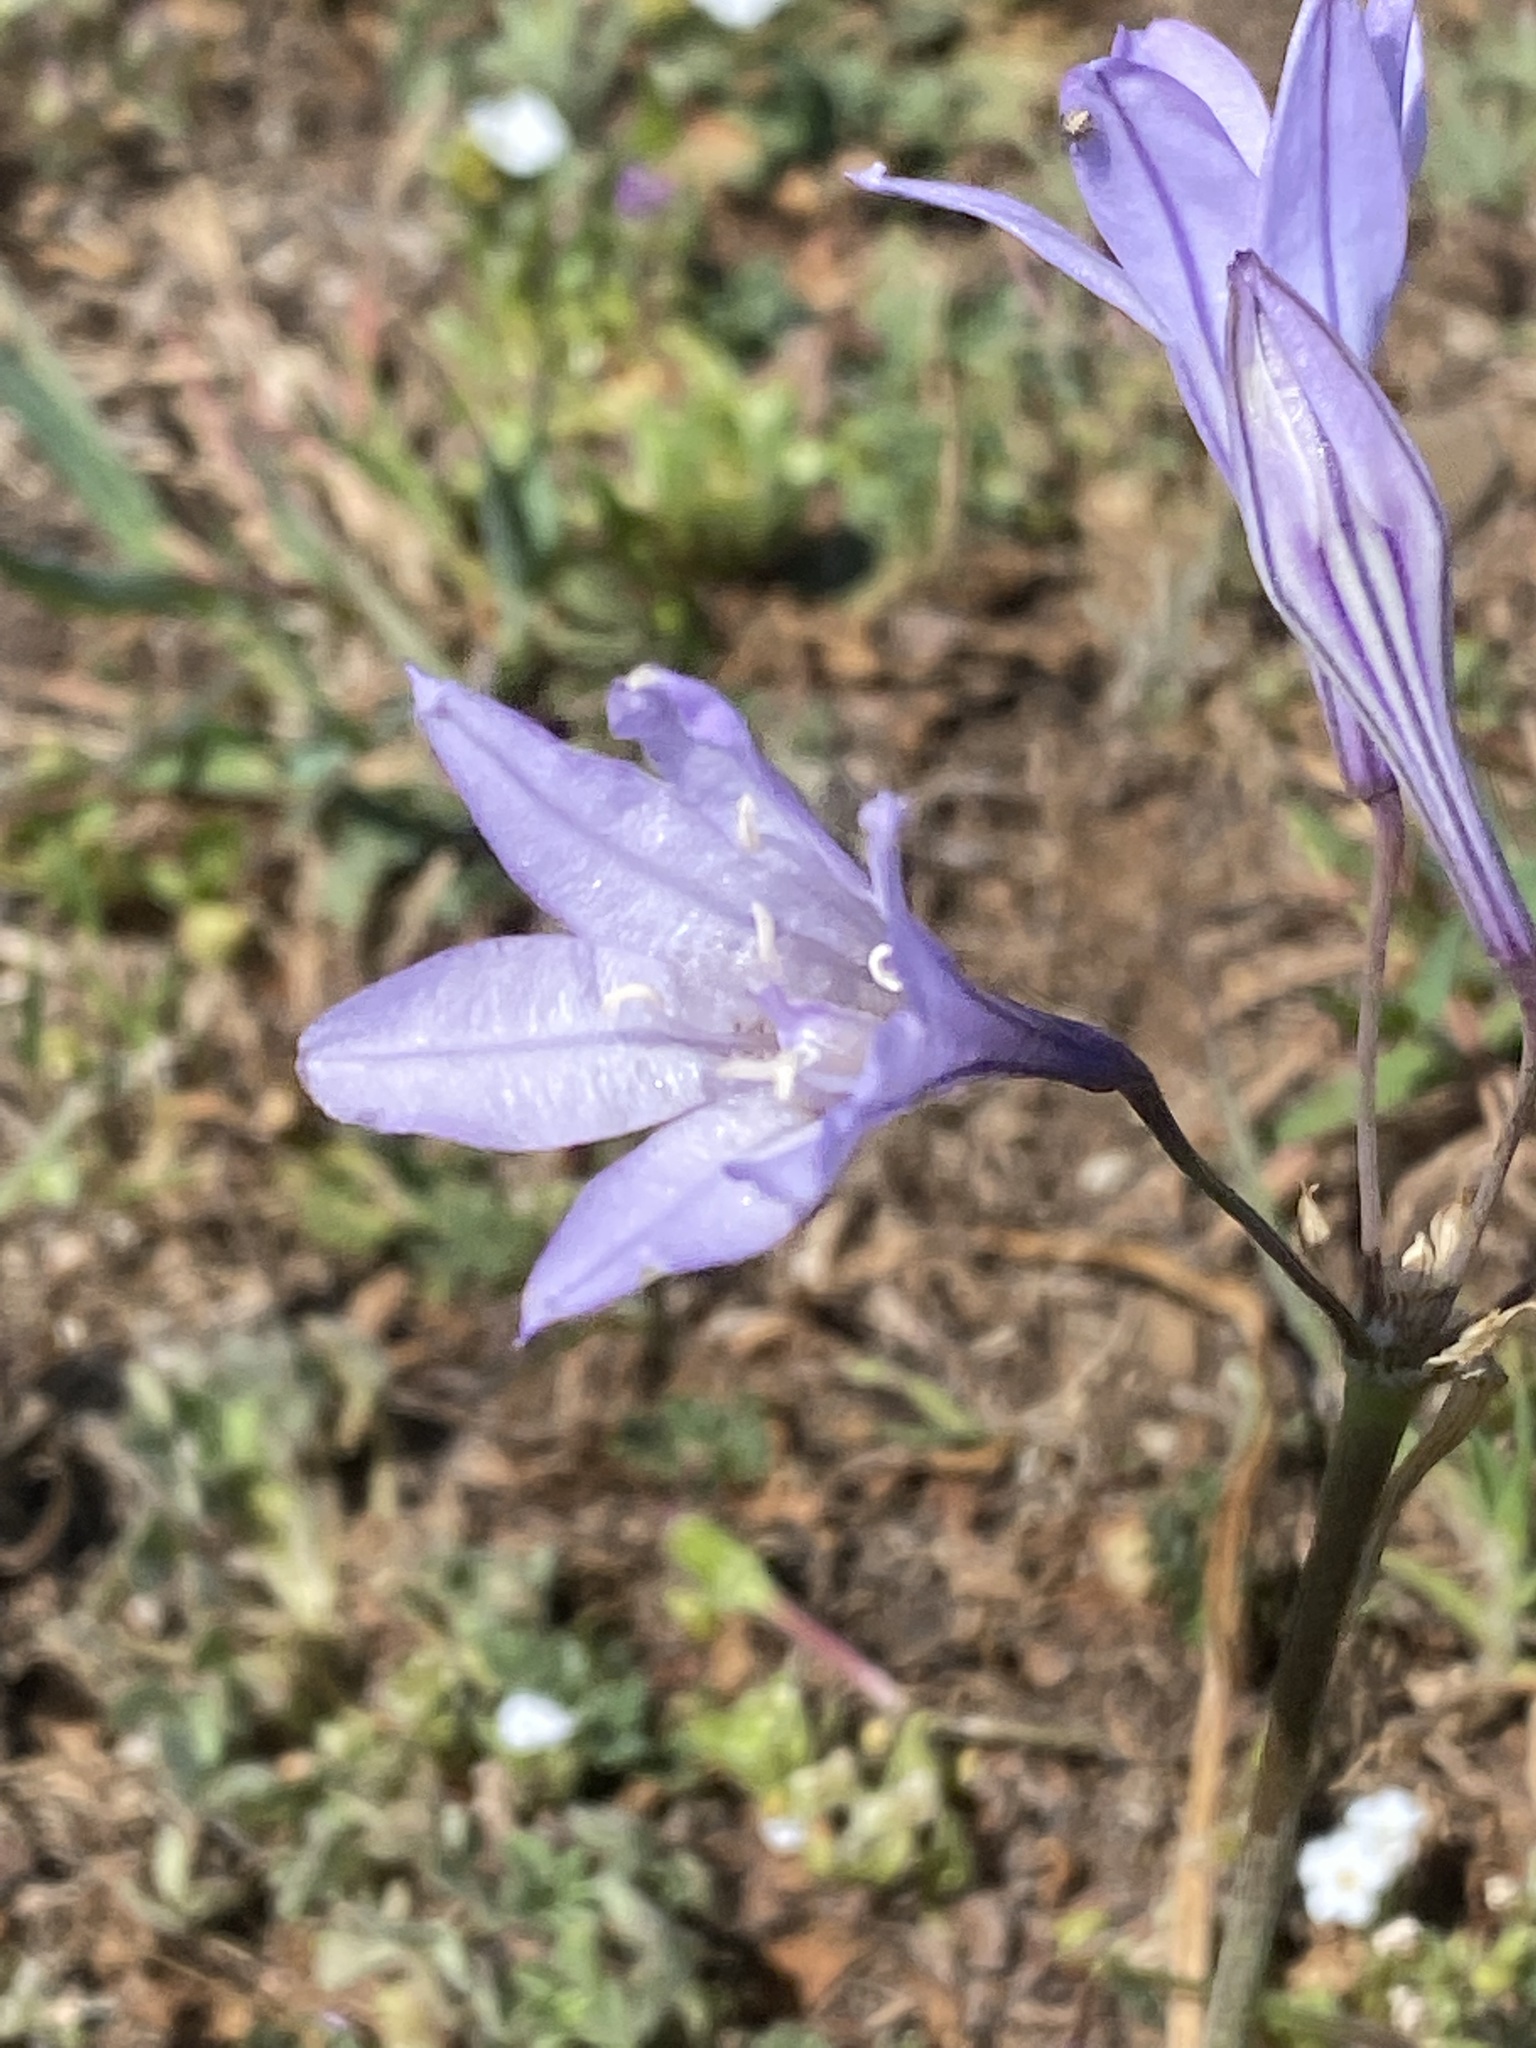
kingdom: Plantae
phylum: Tracheophyta
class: Liliopsida
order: Asparagales
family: Asparagaceae
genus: Triteleia
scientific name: Triteleia laxa
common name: Triplet-lily
